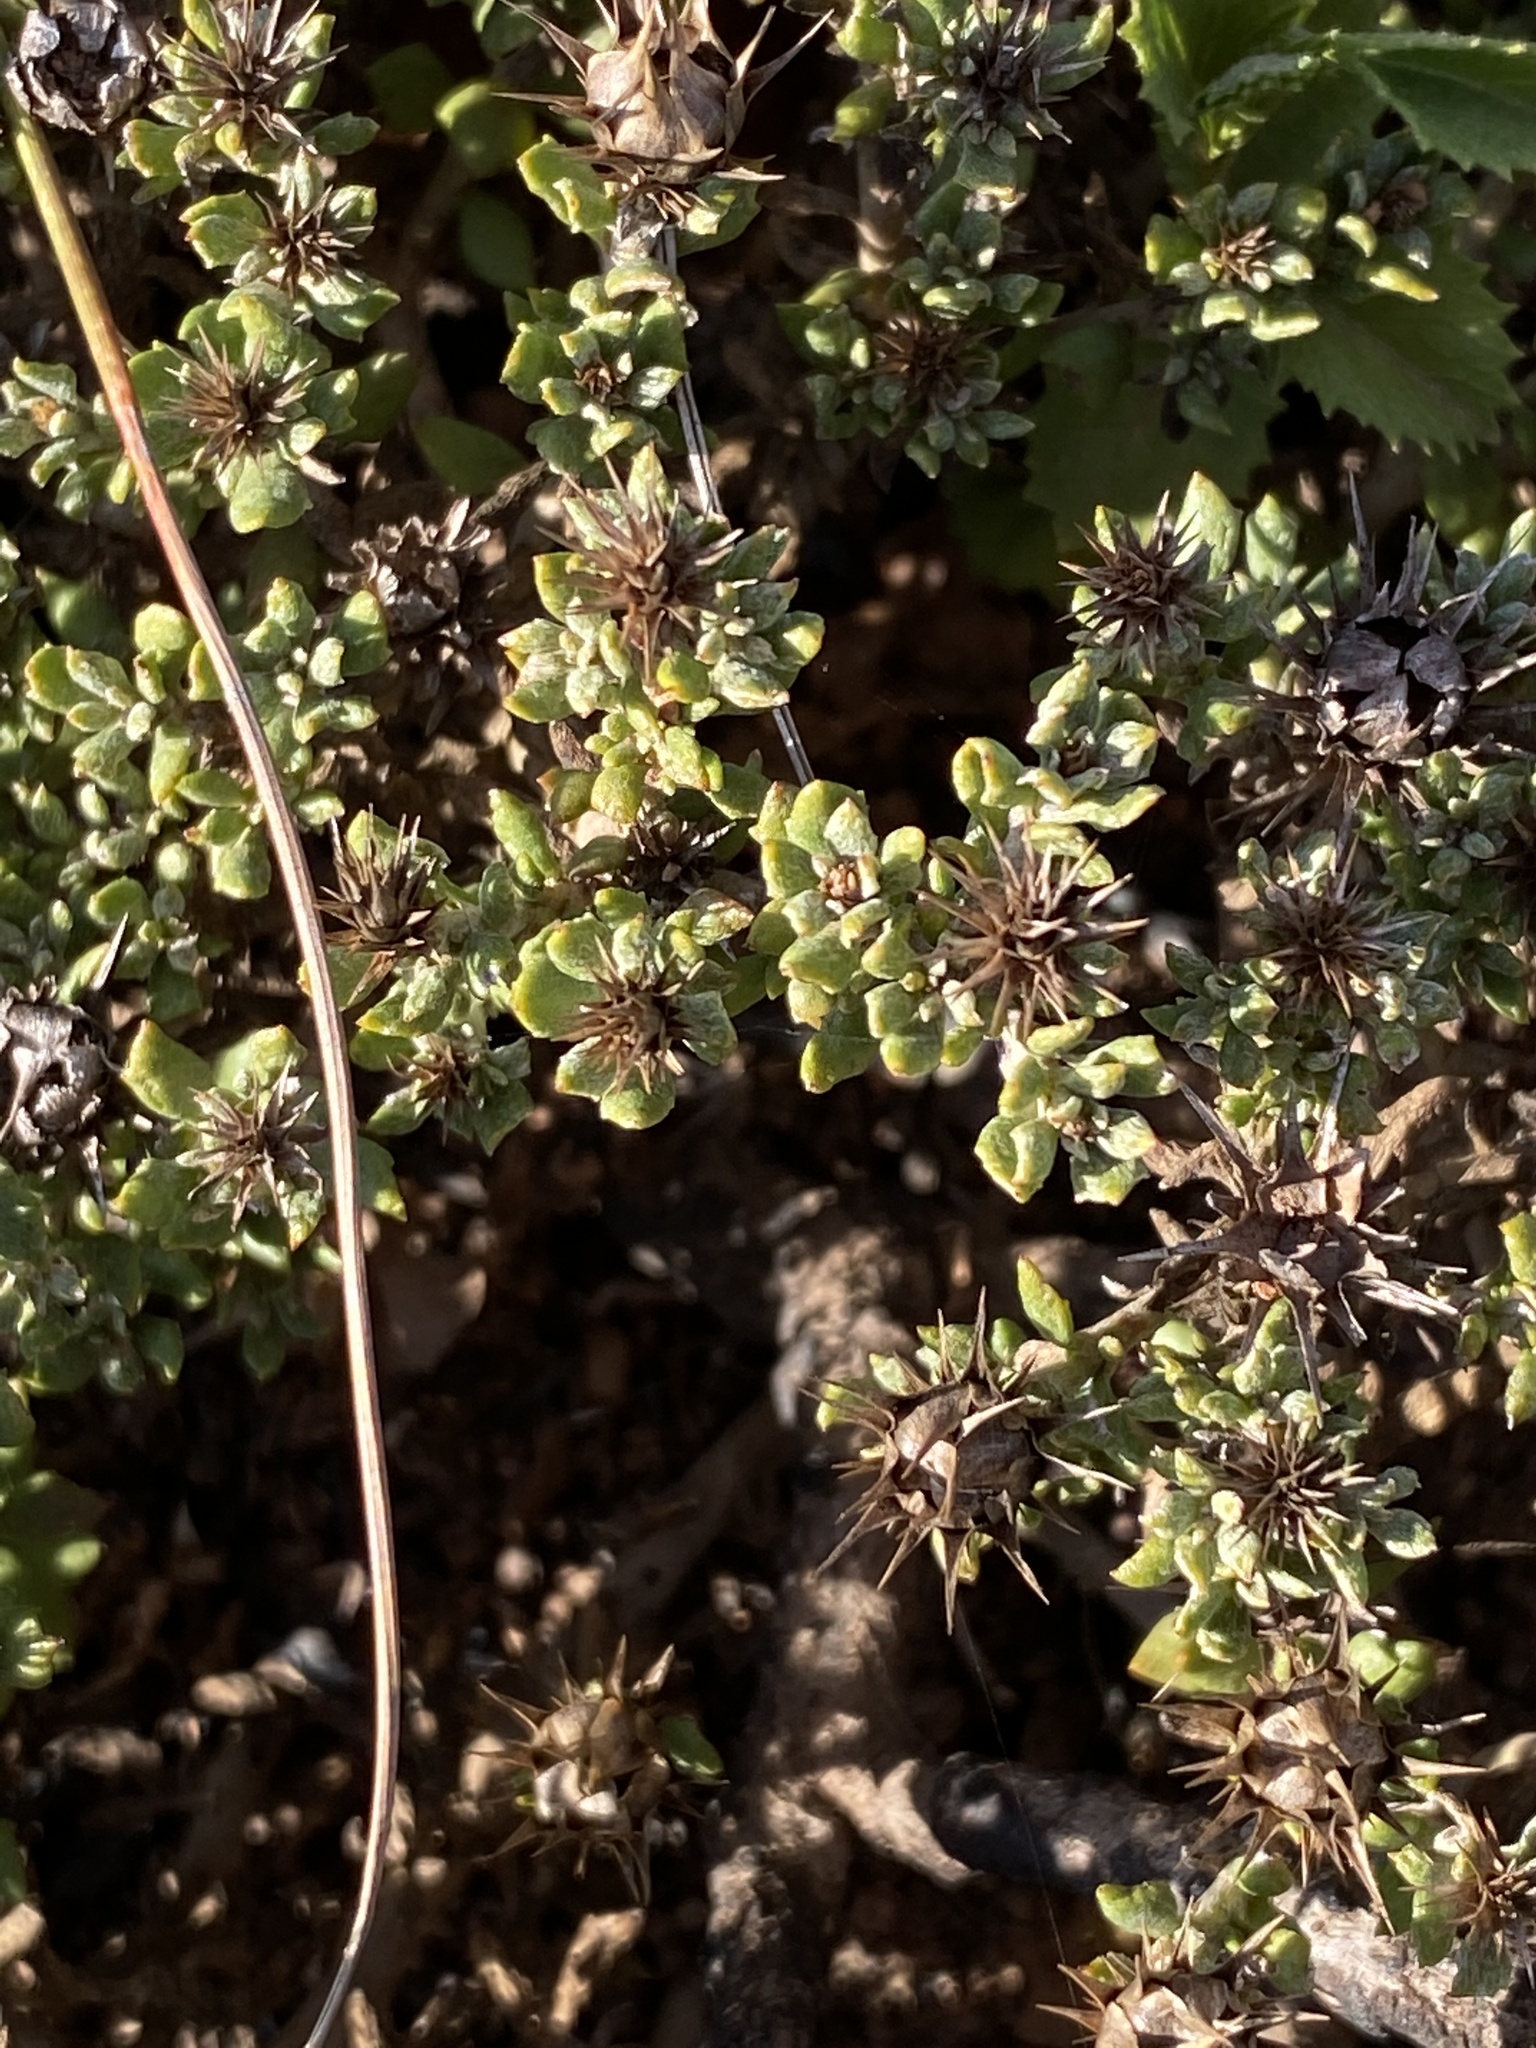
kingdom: Plantae
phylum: Tracheophyta
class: Magnoliopsida
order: Asterales
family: Asteraceae
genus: Macledium
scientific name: Macledium spinosum
